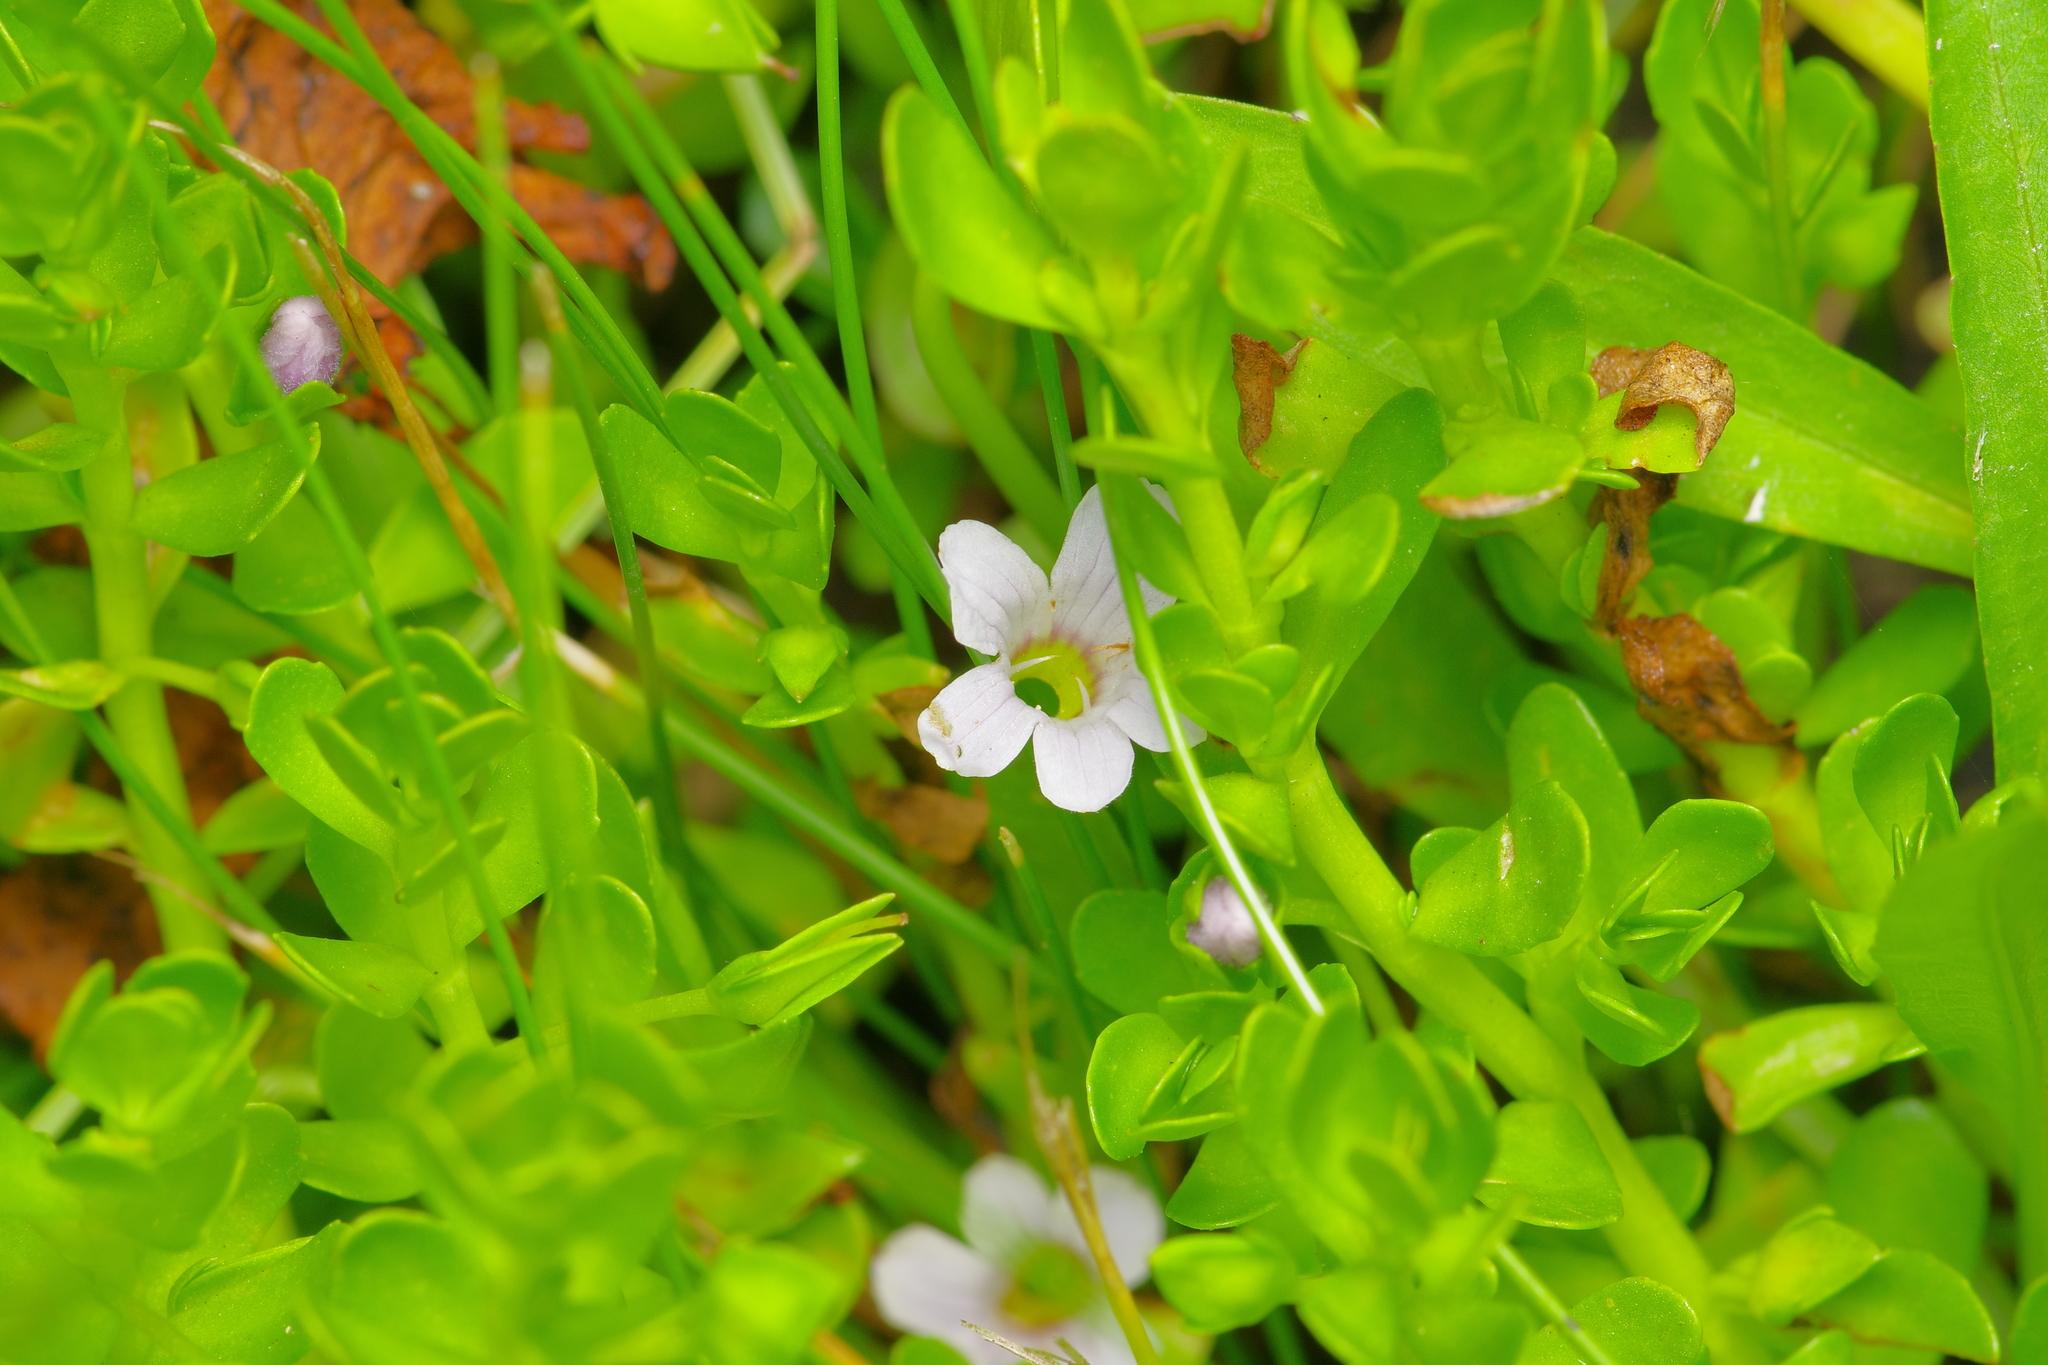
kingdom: Plantae
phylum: Tracheophyta
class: Magnoliopsida
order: Lamiales
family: Plantaginaceae
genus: Bacopa
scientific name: Bacopa monnieri
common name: Indian-pennywort
